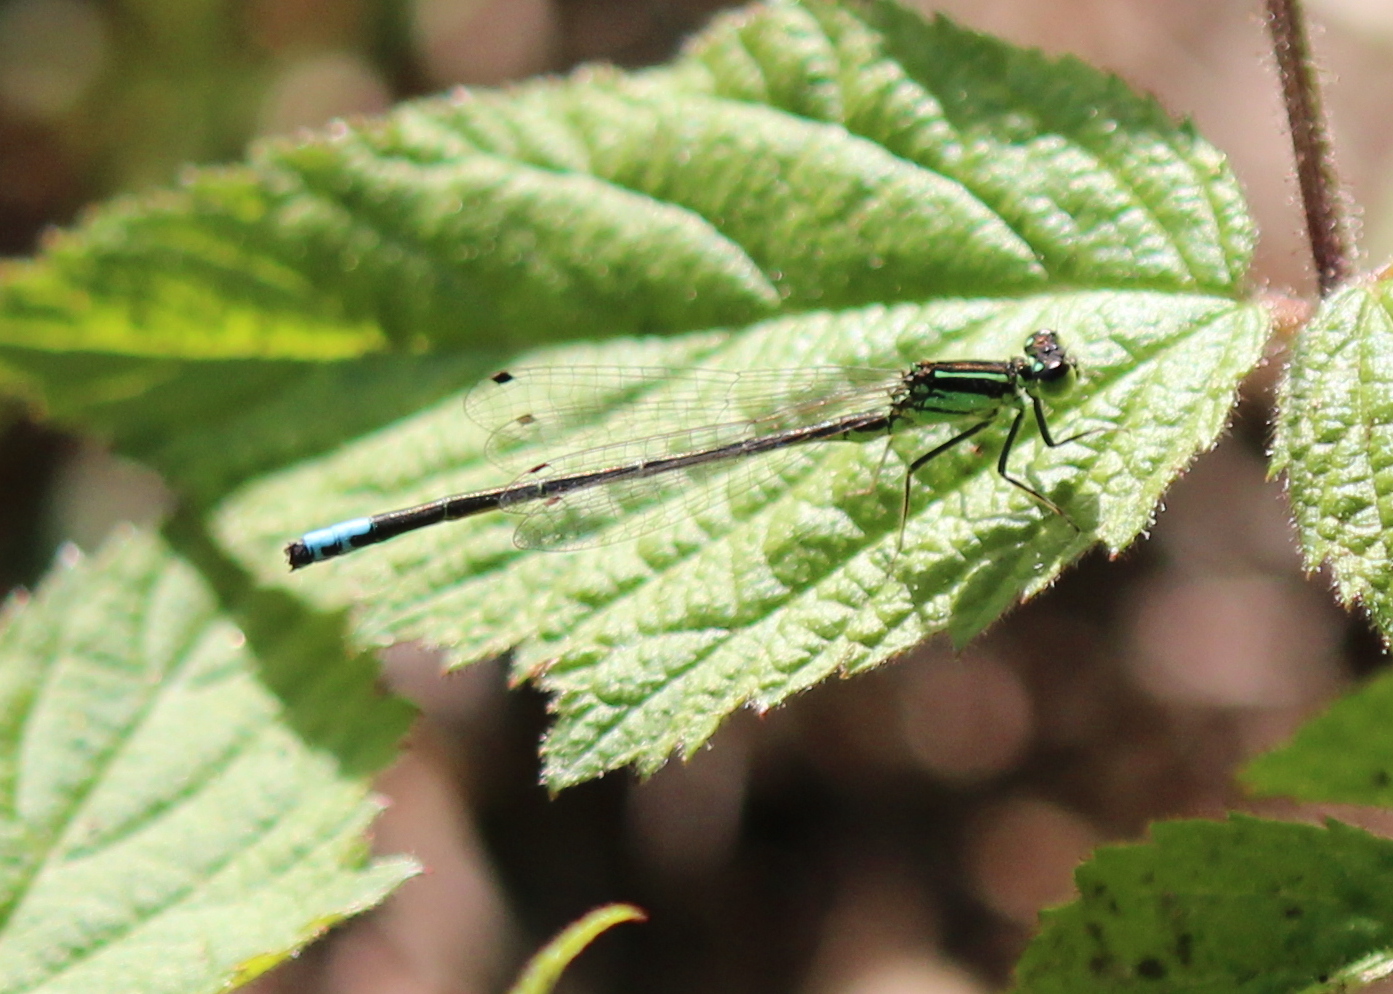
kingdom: Animalia
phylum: Arthropoda
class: Insecta
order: Odonata
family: Coenagrionidae
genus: Ischnura
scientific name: Ischnura verticalis
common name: Eastern forktail
